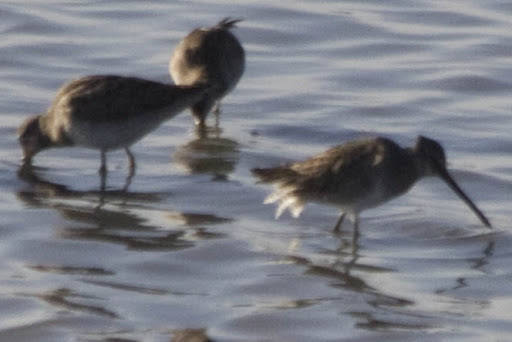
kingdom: Animalia
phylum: Chordata
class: Aves
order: Charadriiformes
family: Scolopacidae
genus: Limnodromus
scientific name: Limnodromus
